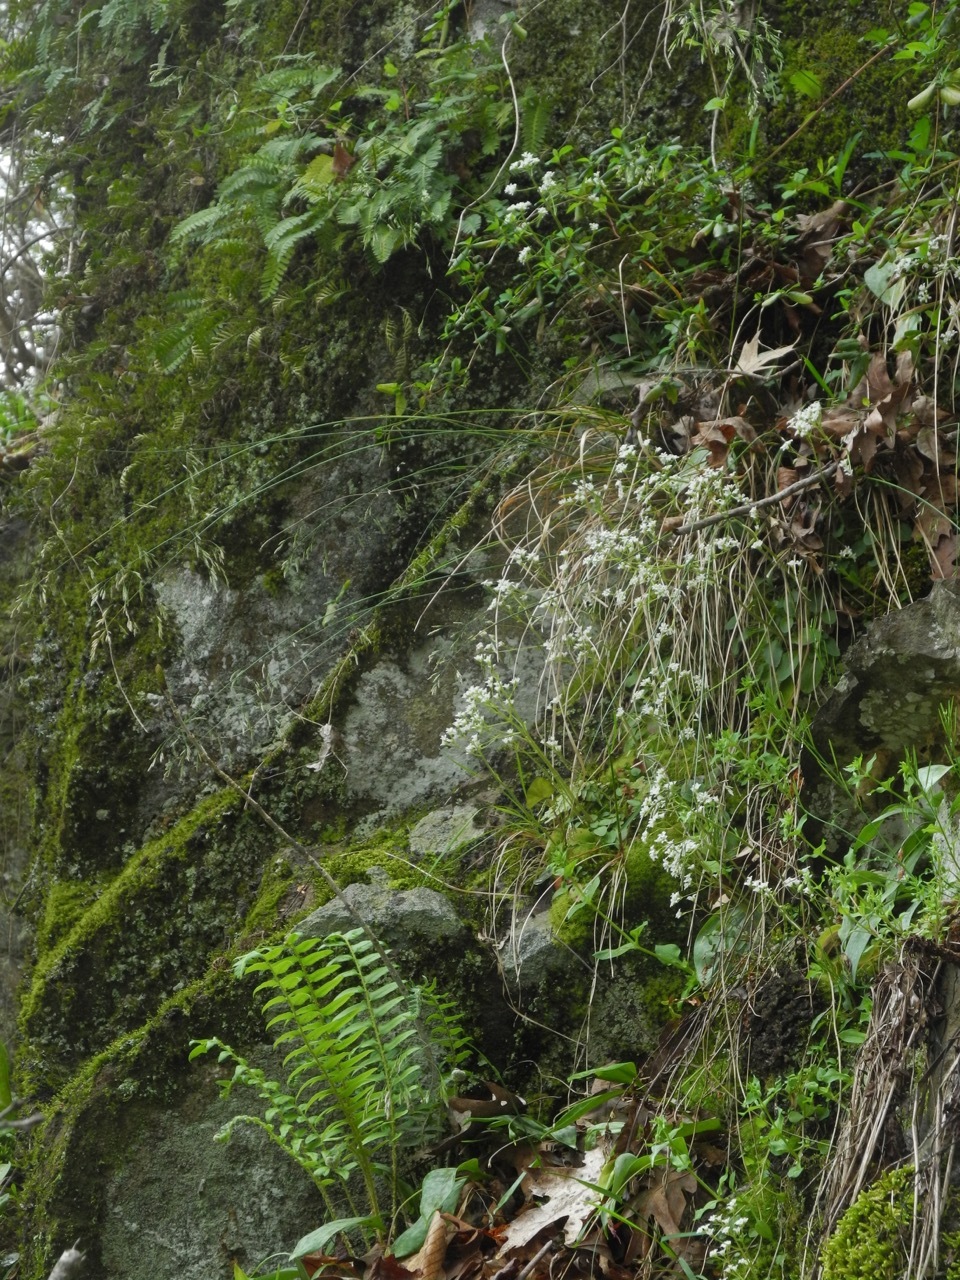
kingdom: Plantae
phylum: Tracheophyta
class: Polypodiopsida
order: Polypodiales
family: Polypodiaceae
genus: Pleopeltis
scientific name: Pleopeltis michauxiana
